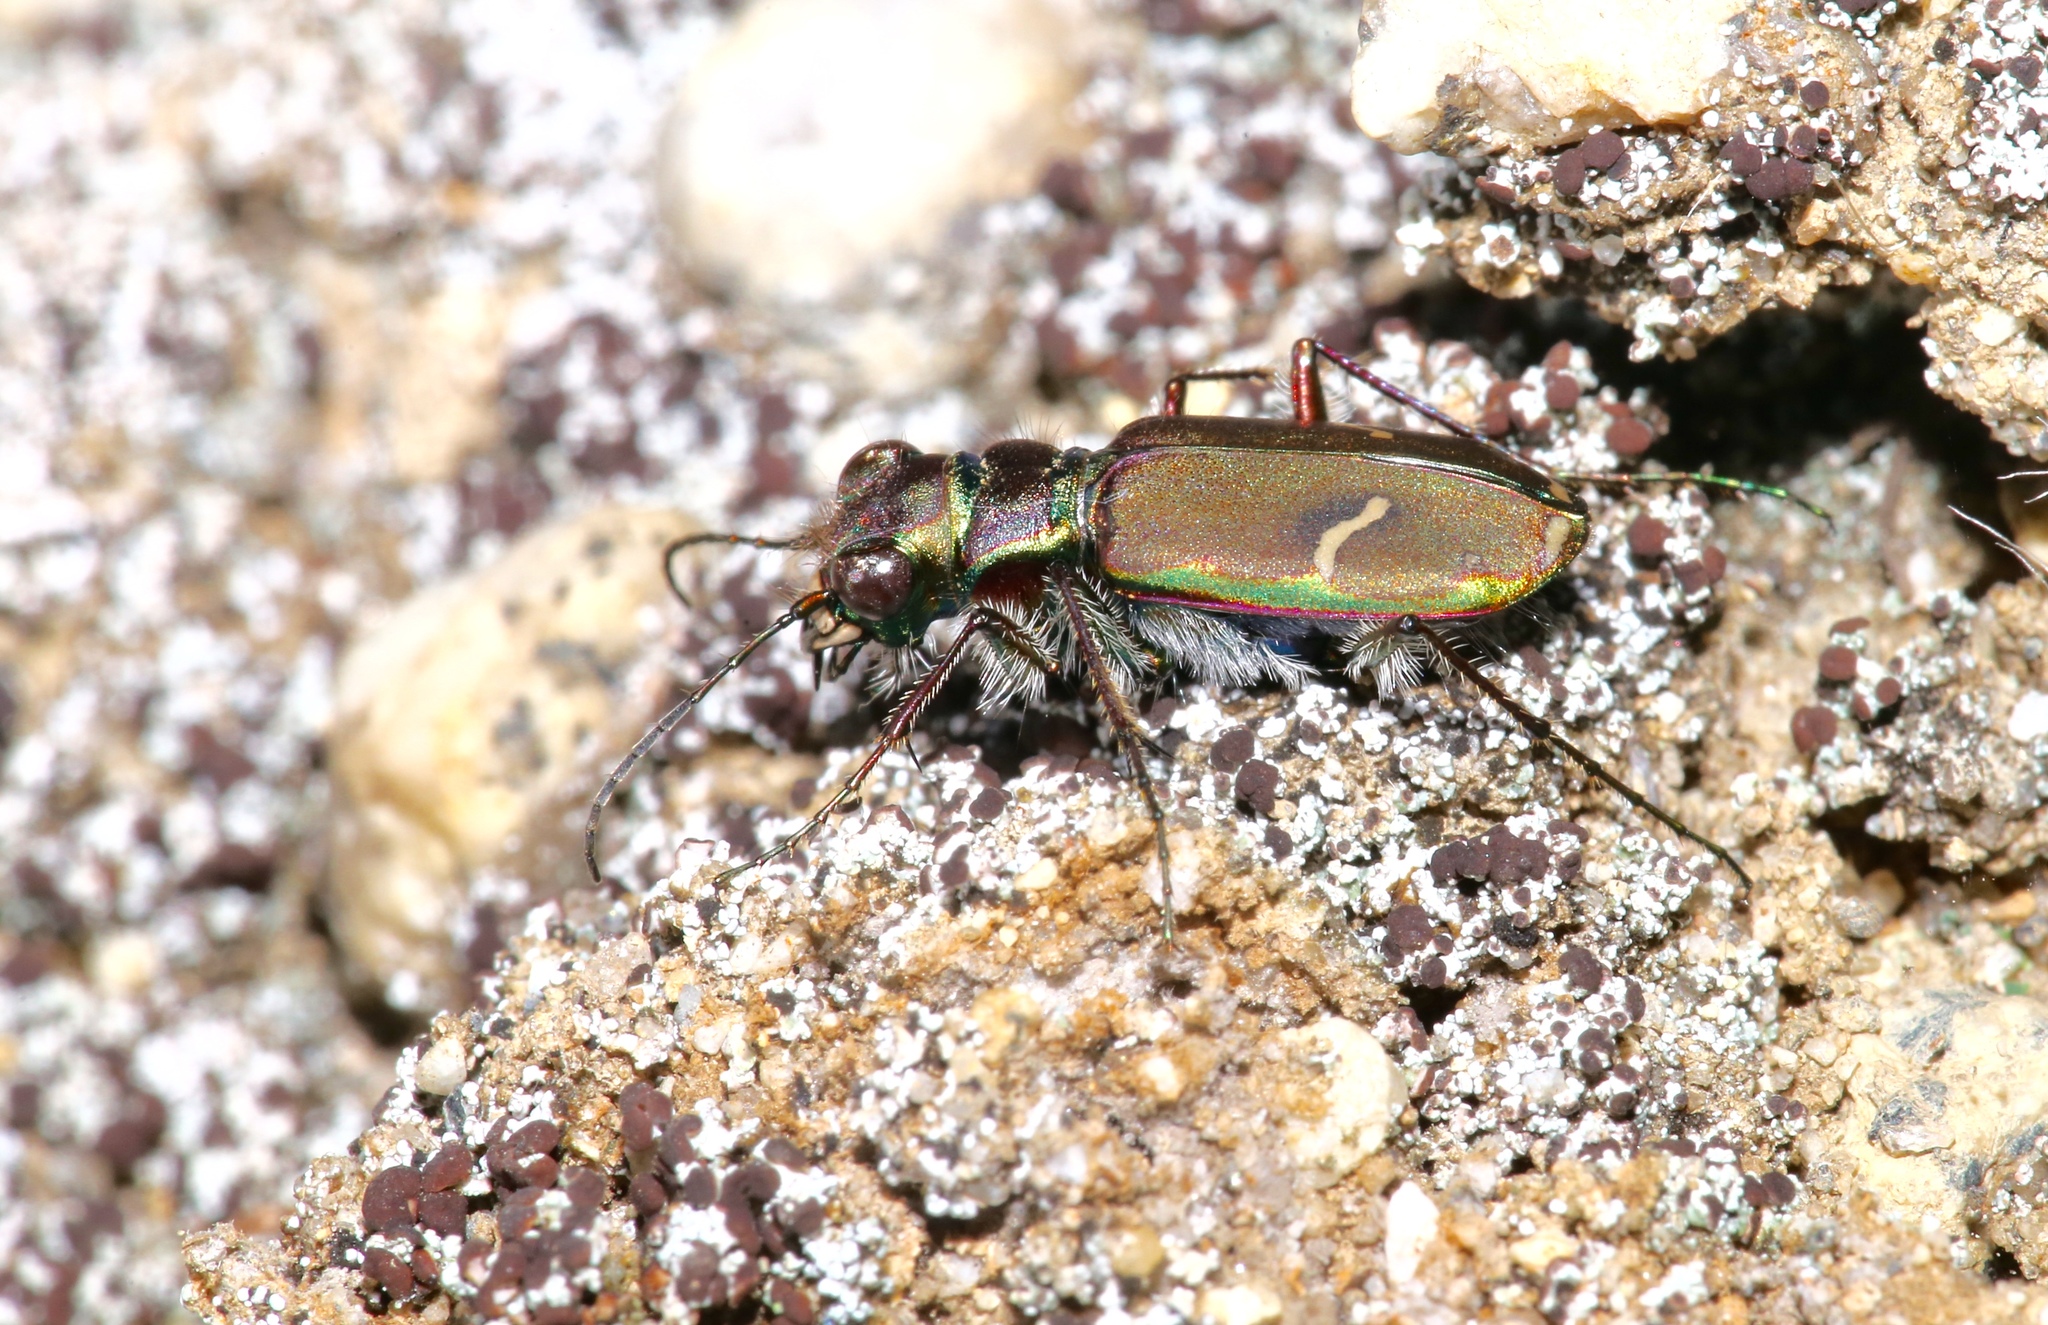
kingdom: Animalia
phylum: Arthropoda
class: Insecta
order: Coleoptera
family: Carabidae
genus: Cicindela
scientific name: Cicindela purpurea
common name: Cow path tiger beetle
